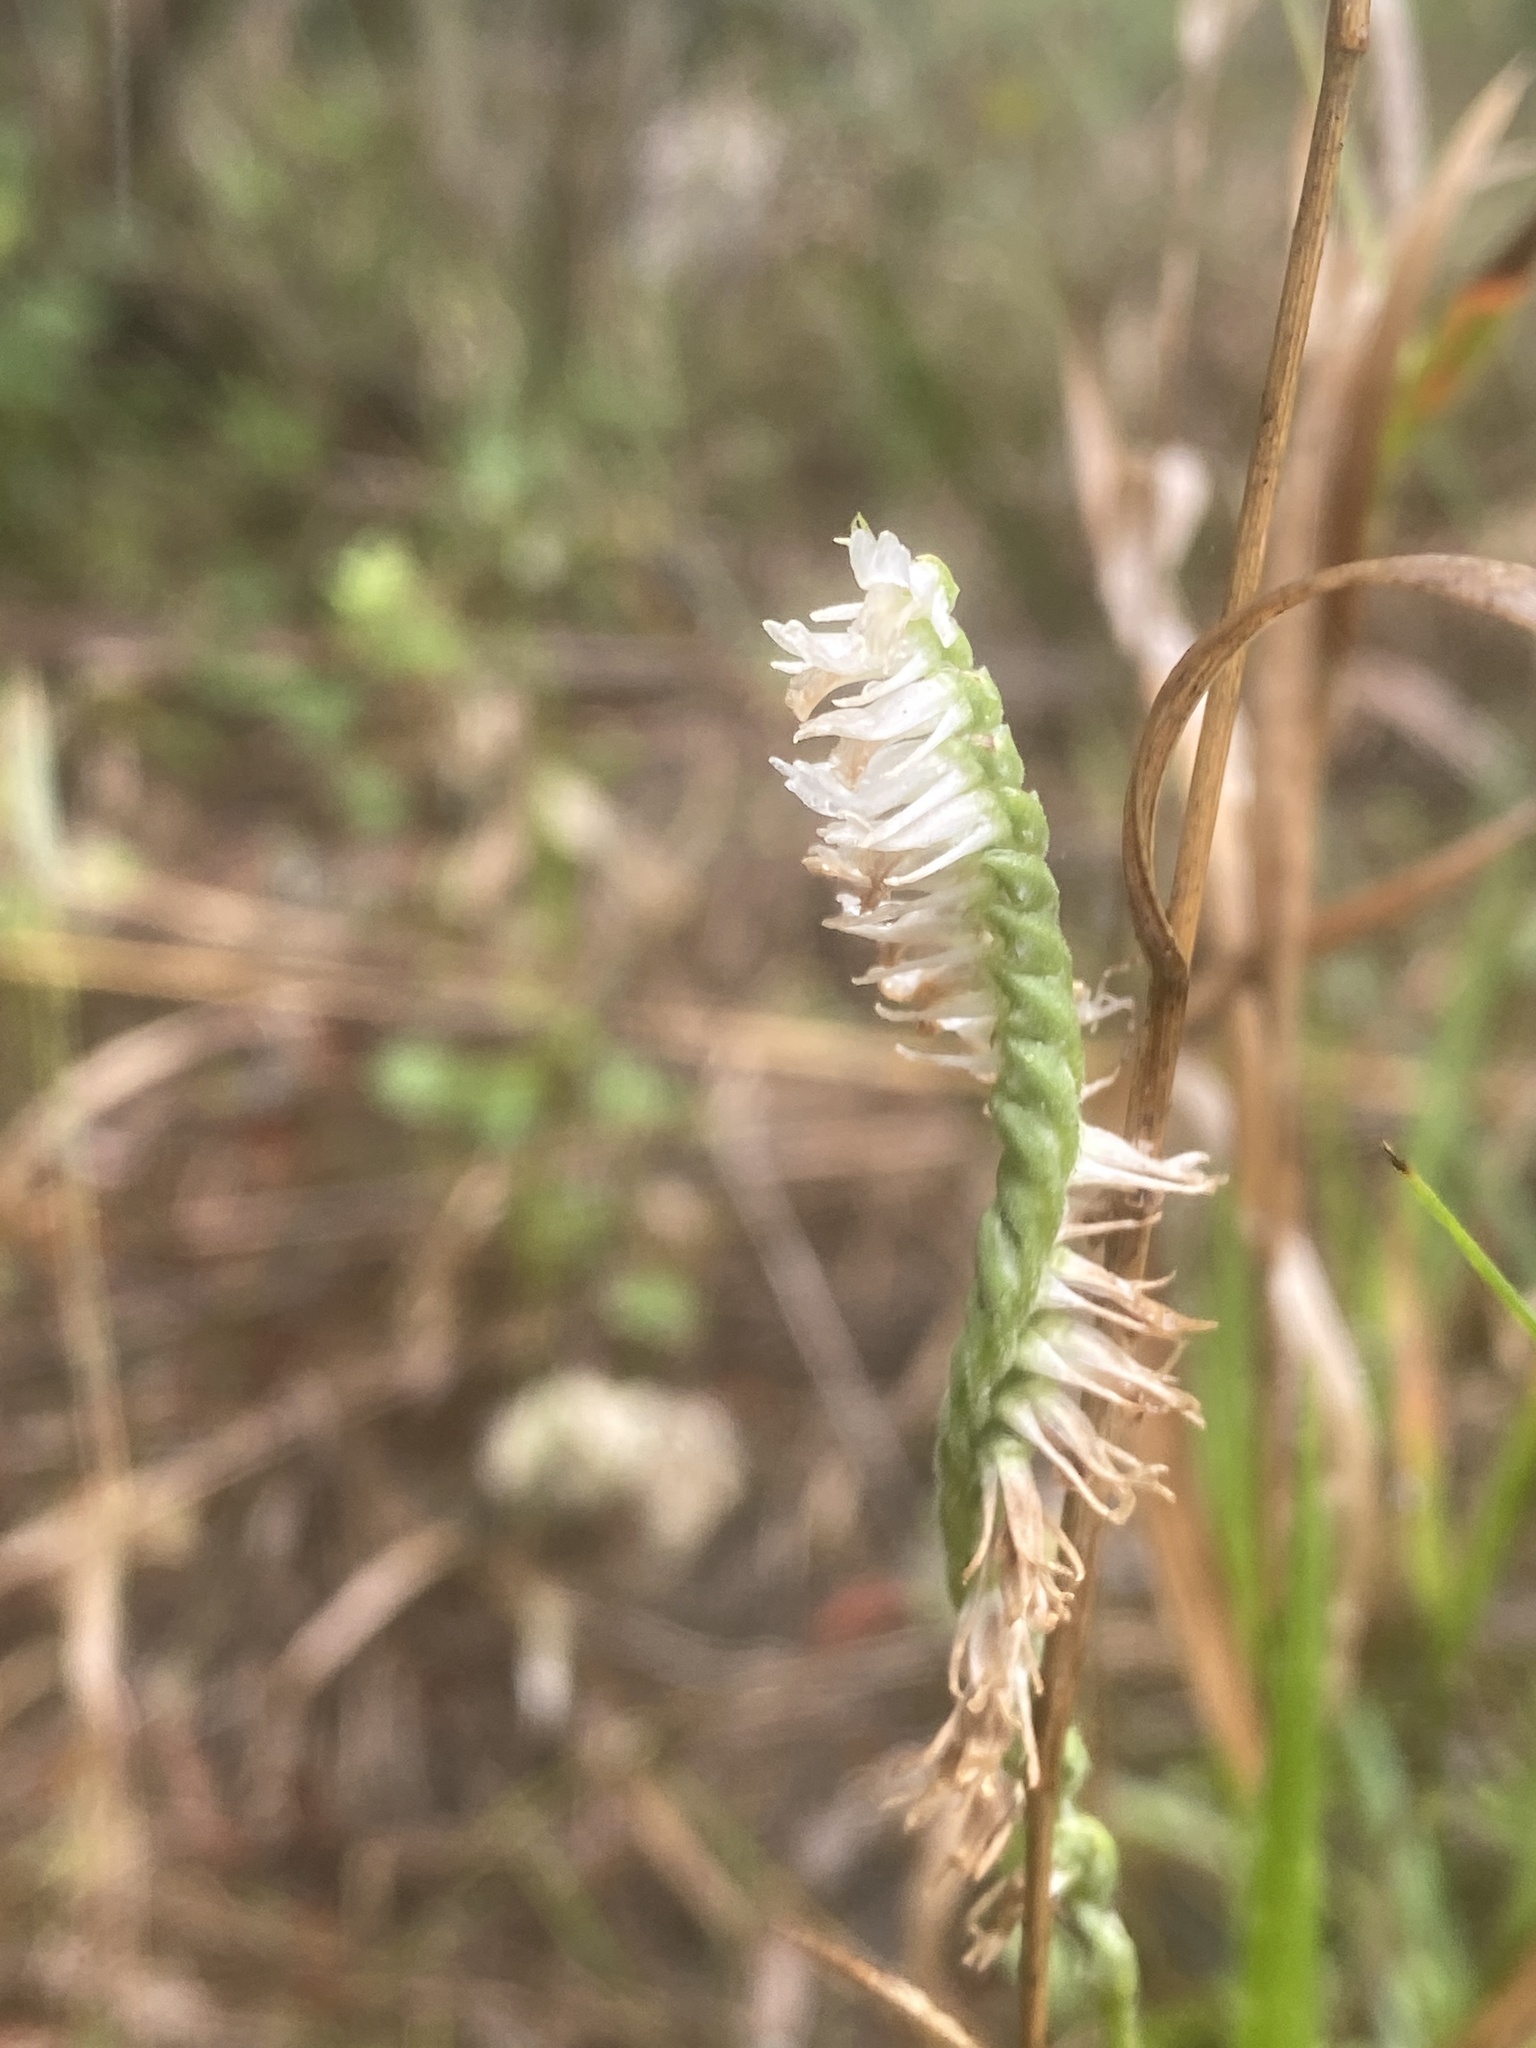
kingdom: Plantae
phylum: Tracheophyta
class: Liliopsida
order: Asparagales
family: Orchidaceae
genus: Spiranthes
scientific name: Spiranthes vernalis
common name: Spring ladies'-tresses
